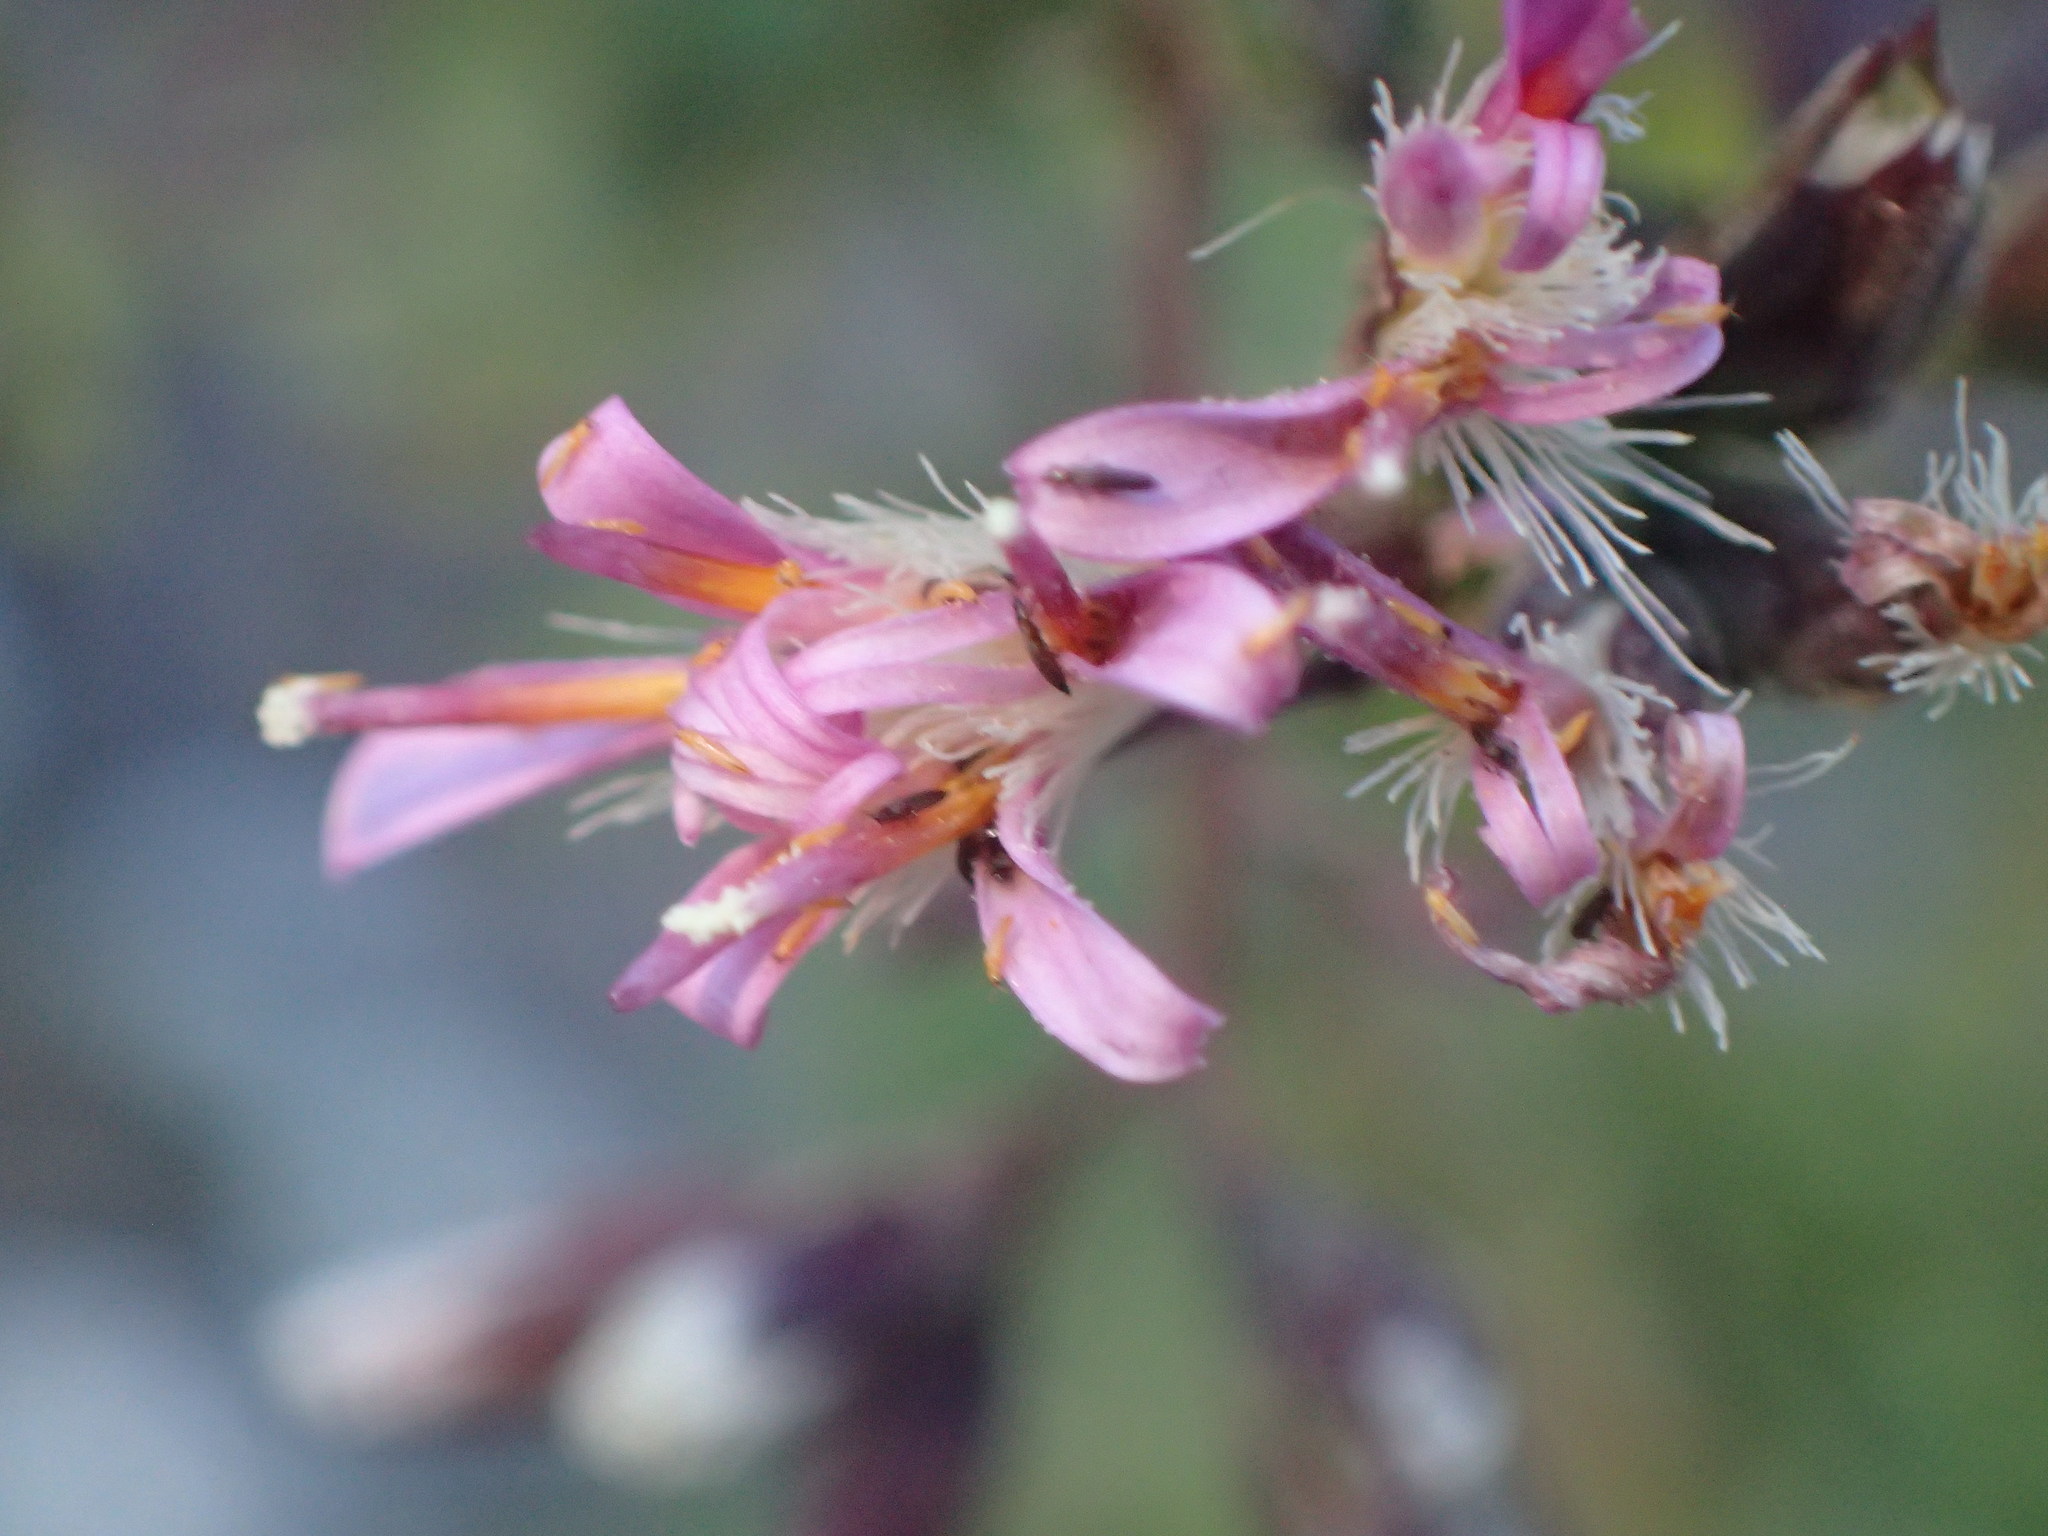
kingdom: Plantae
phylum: Tracheophyta
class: Magnoliopsida
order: Asterales
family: Asteraceae
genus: Acourtia
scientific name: Acourtia microcephala
